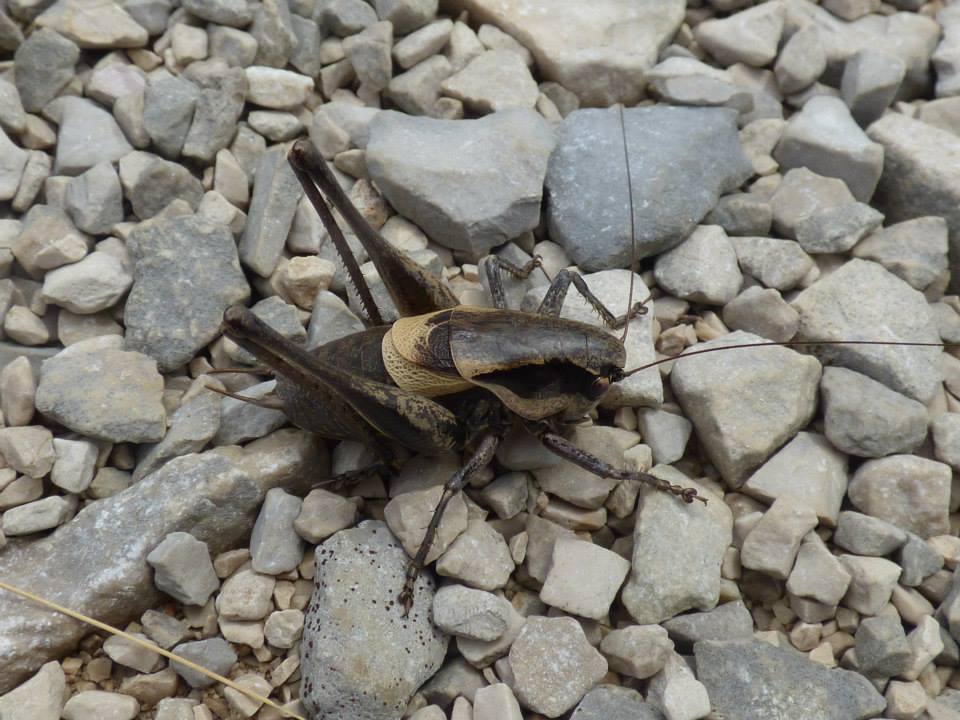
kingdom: Animalia
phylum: Arthropoda
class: Insecta
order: Orthoptera
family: Tettigoniidae
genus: Pholidoptera
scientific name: Pholidoptera dalmatica
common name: Dalmatian dark bush-cricket
